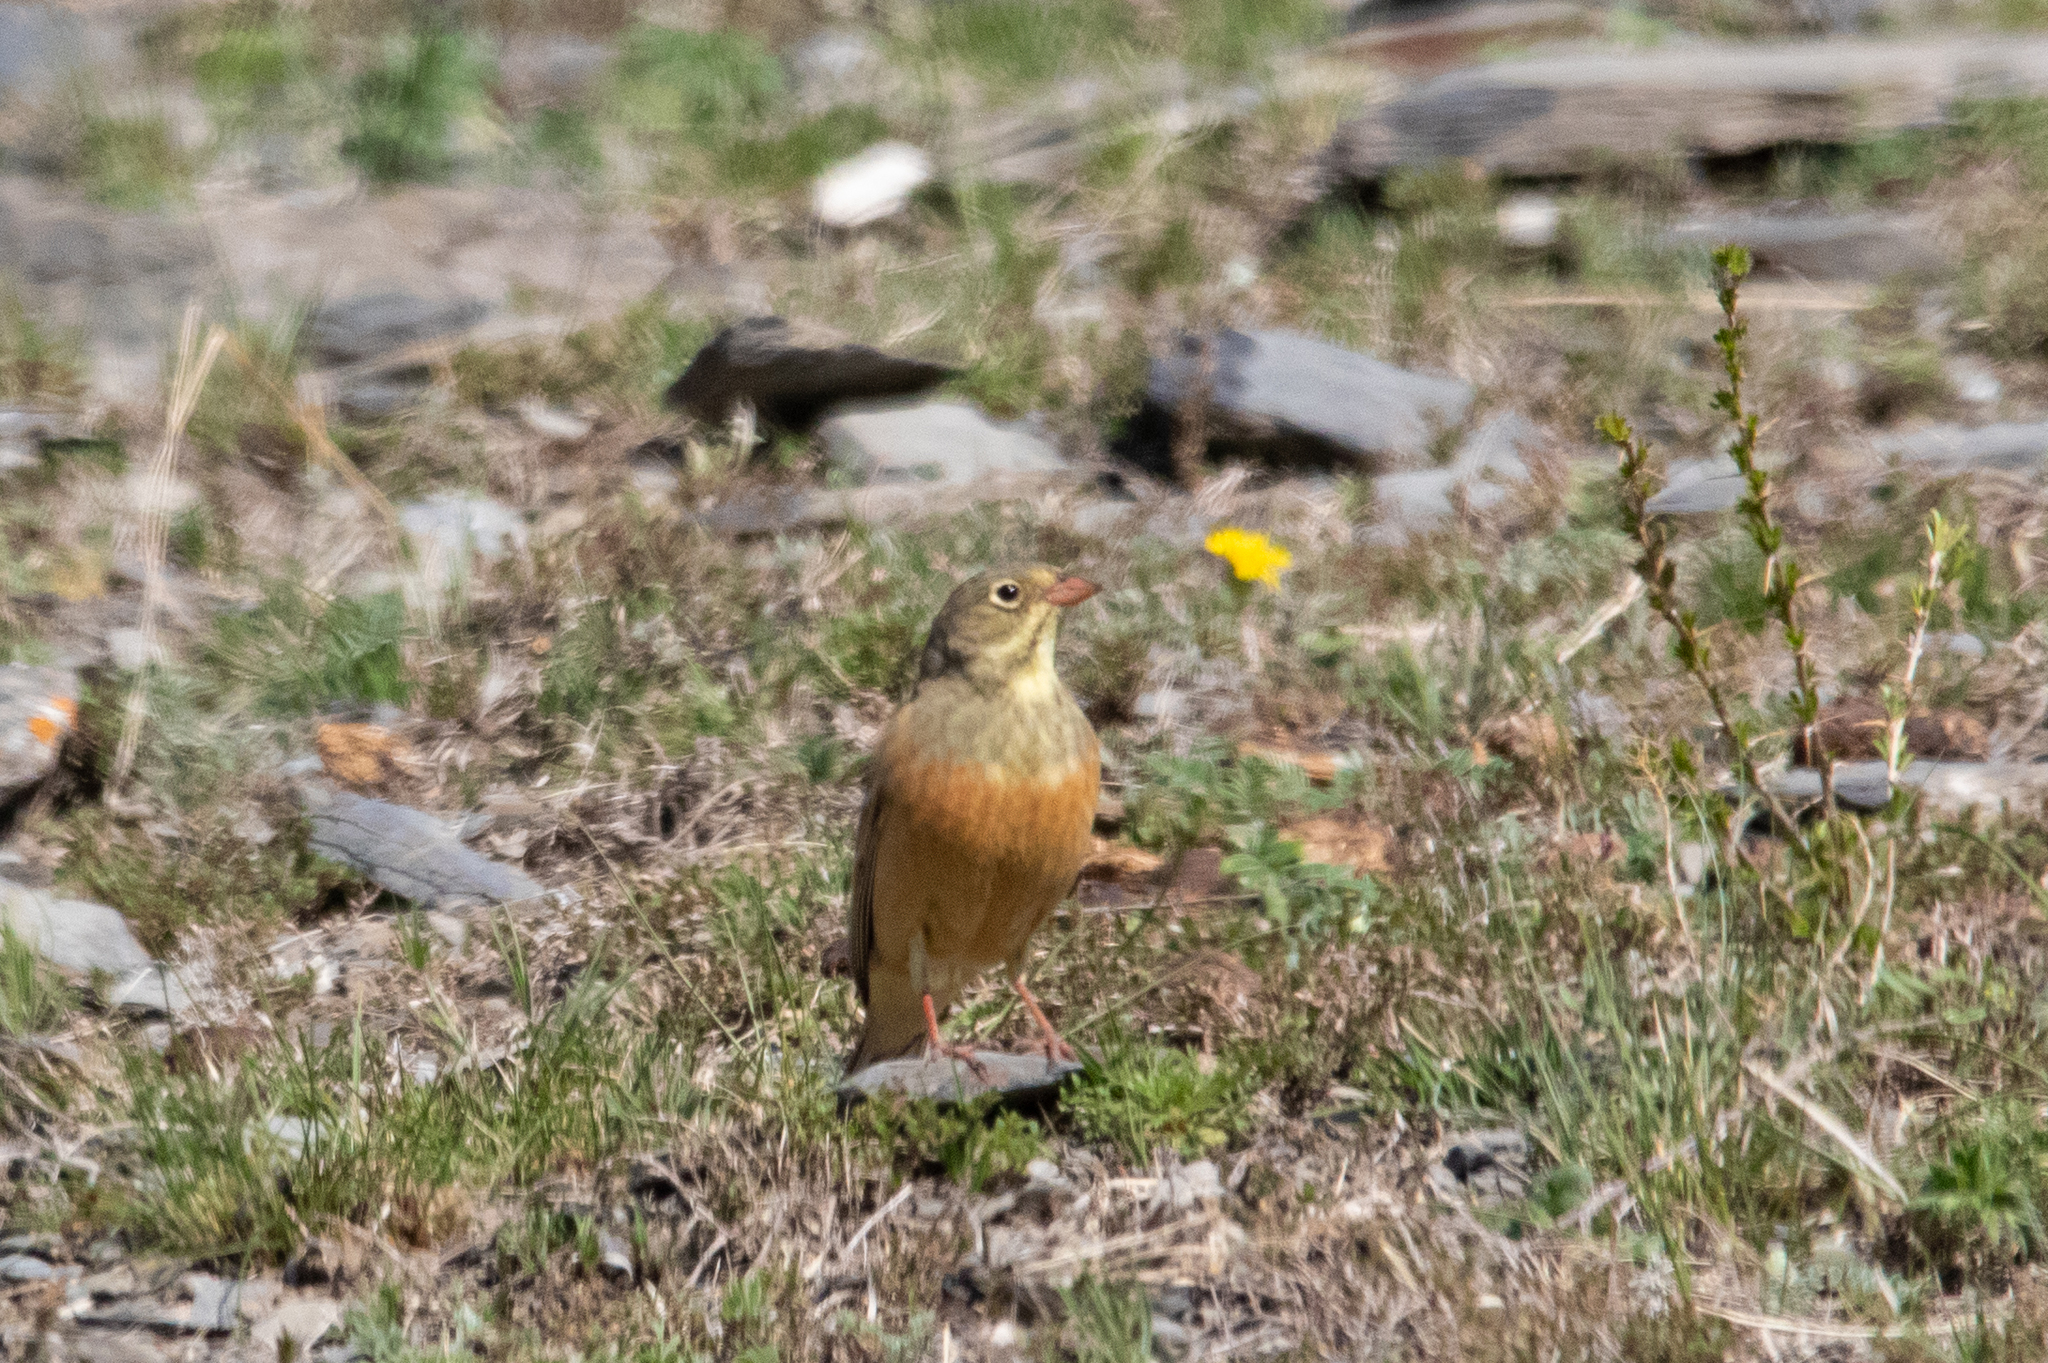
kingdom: Animalia
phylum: Chordata
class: Aves
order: Passeriformes
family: Emberizidae
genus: Emberiza
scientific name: Emberiza hortulana
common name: Ortolan bunting
